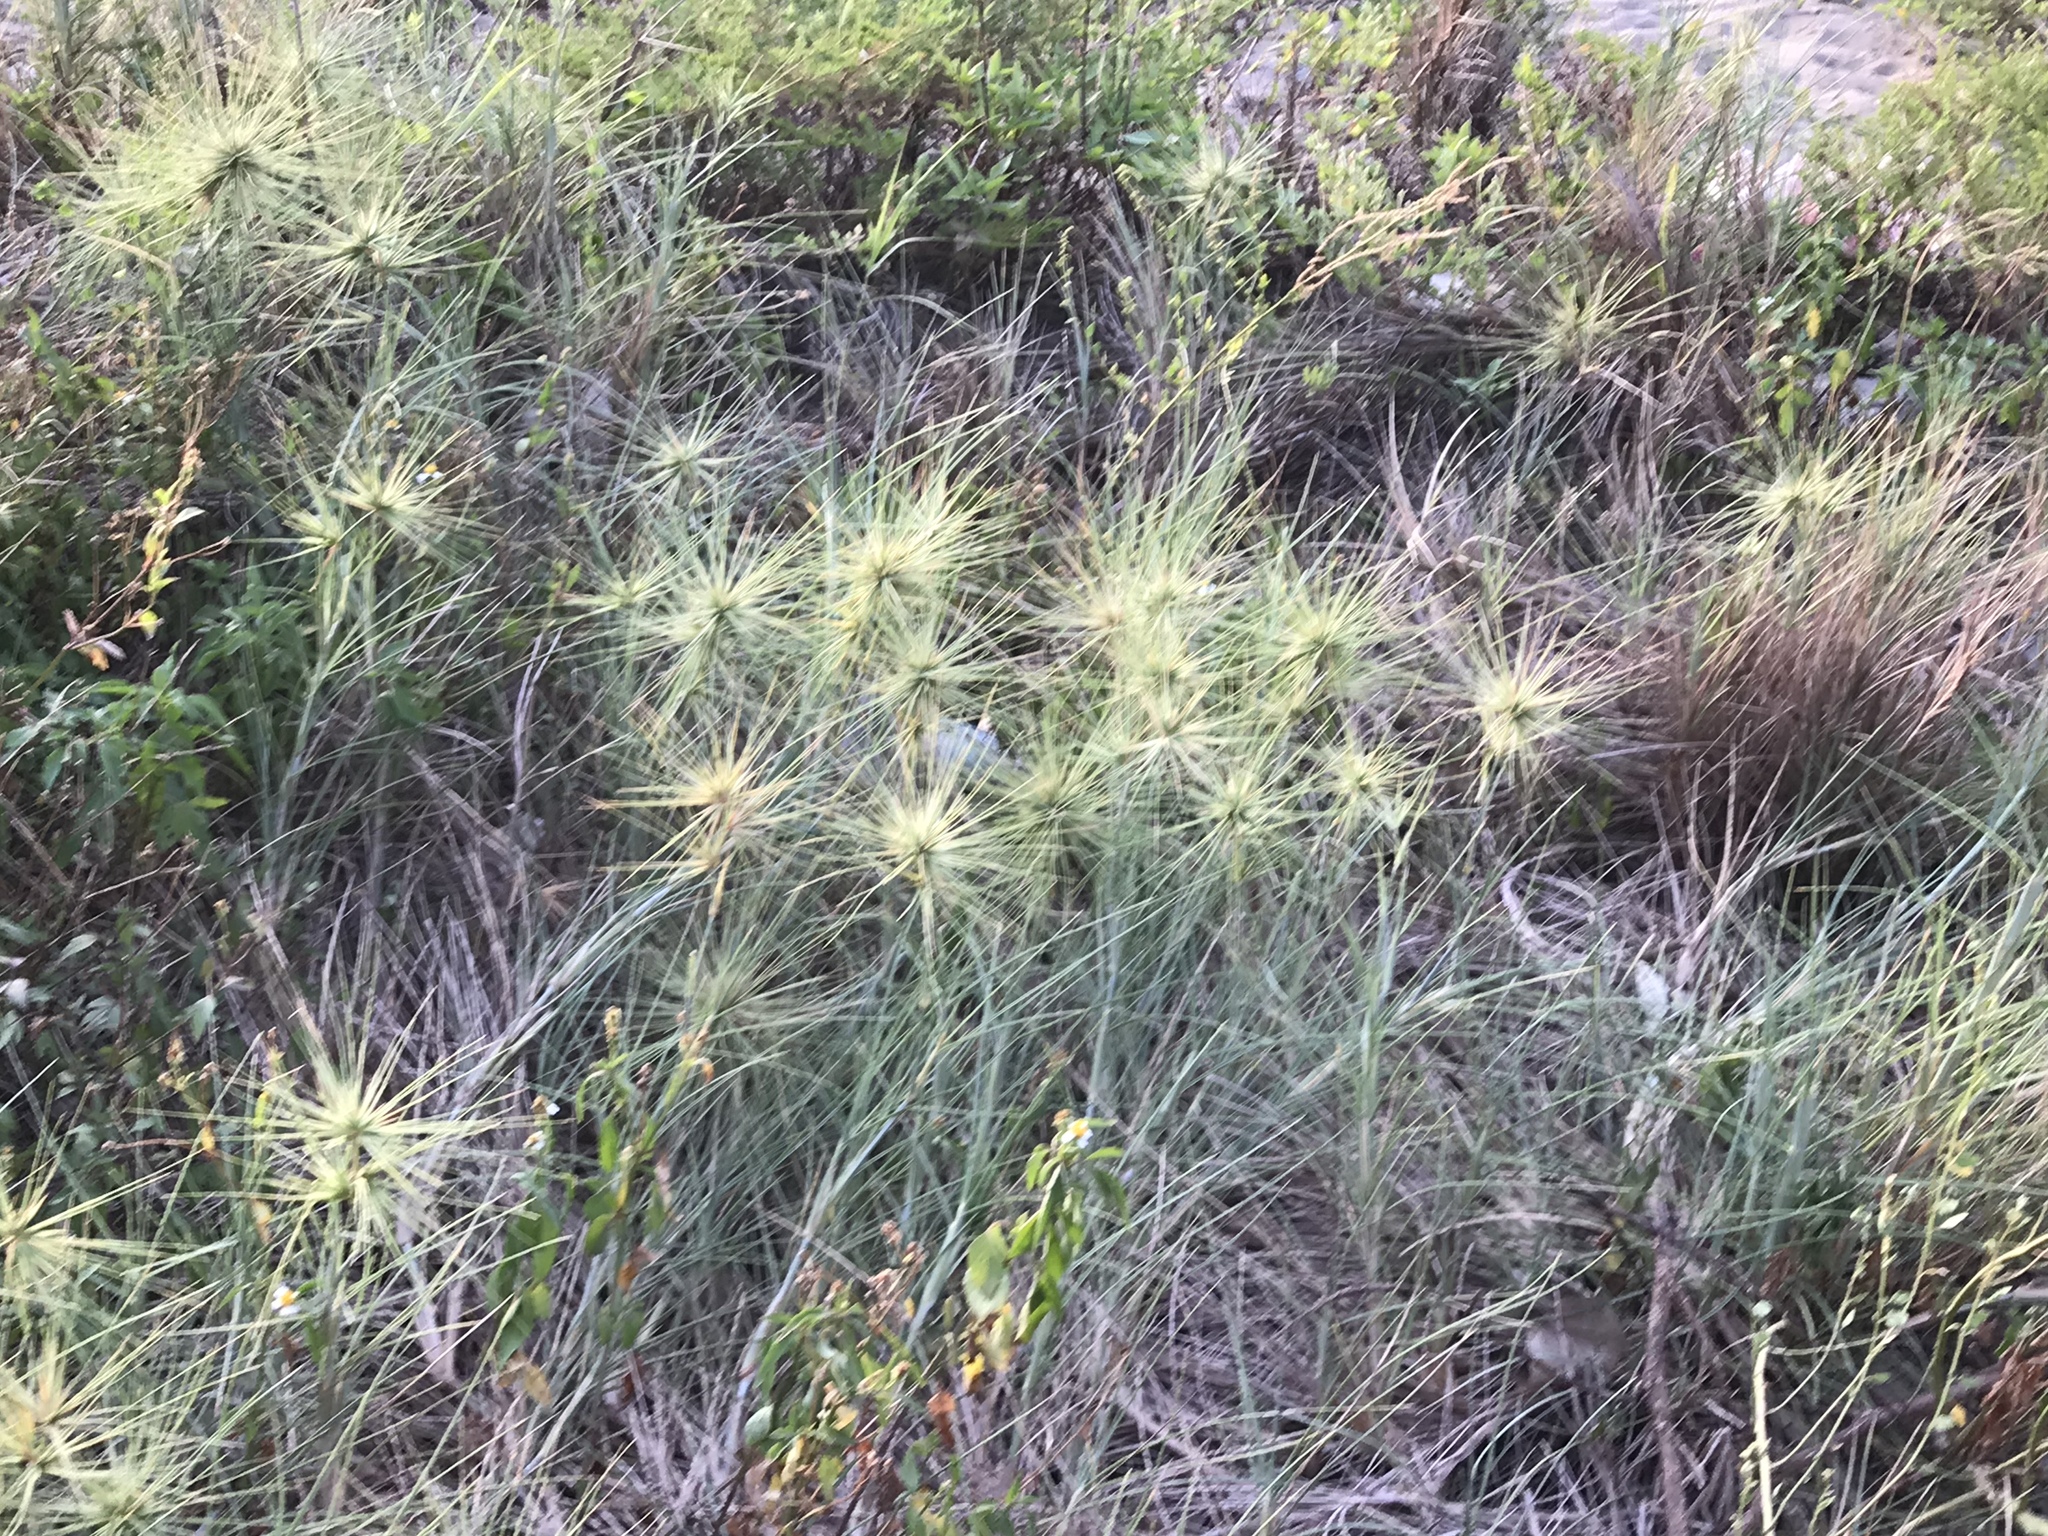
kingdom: Plantae
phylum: Tracheophyta
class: Liliopsida
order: Poales
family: Poaceae
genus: Spinifex
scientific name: Spinifex littoreus
